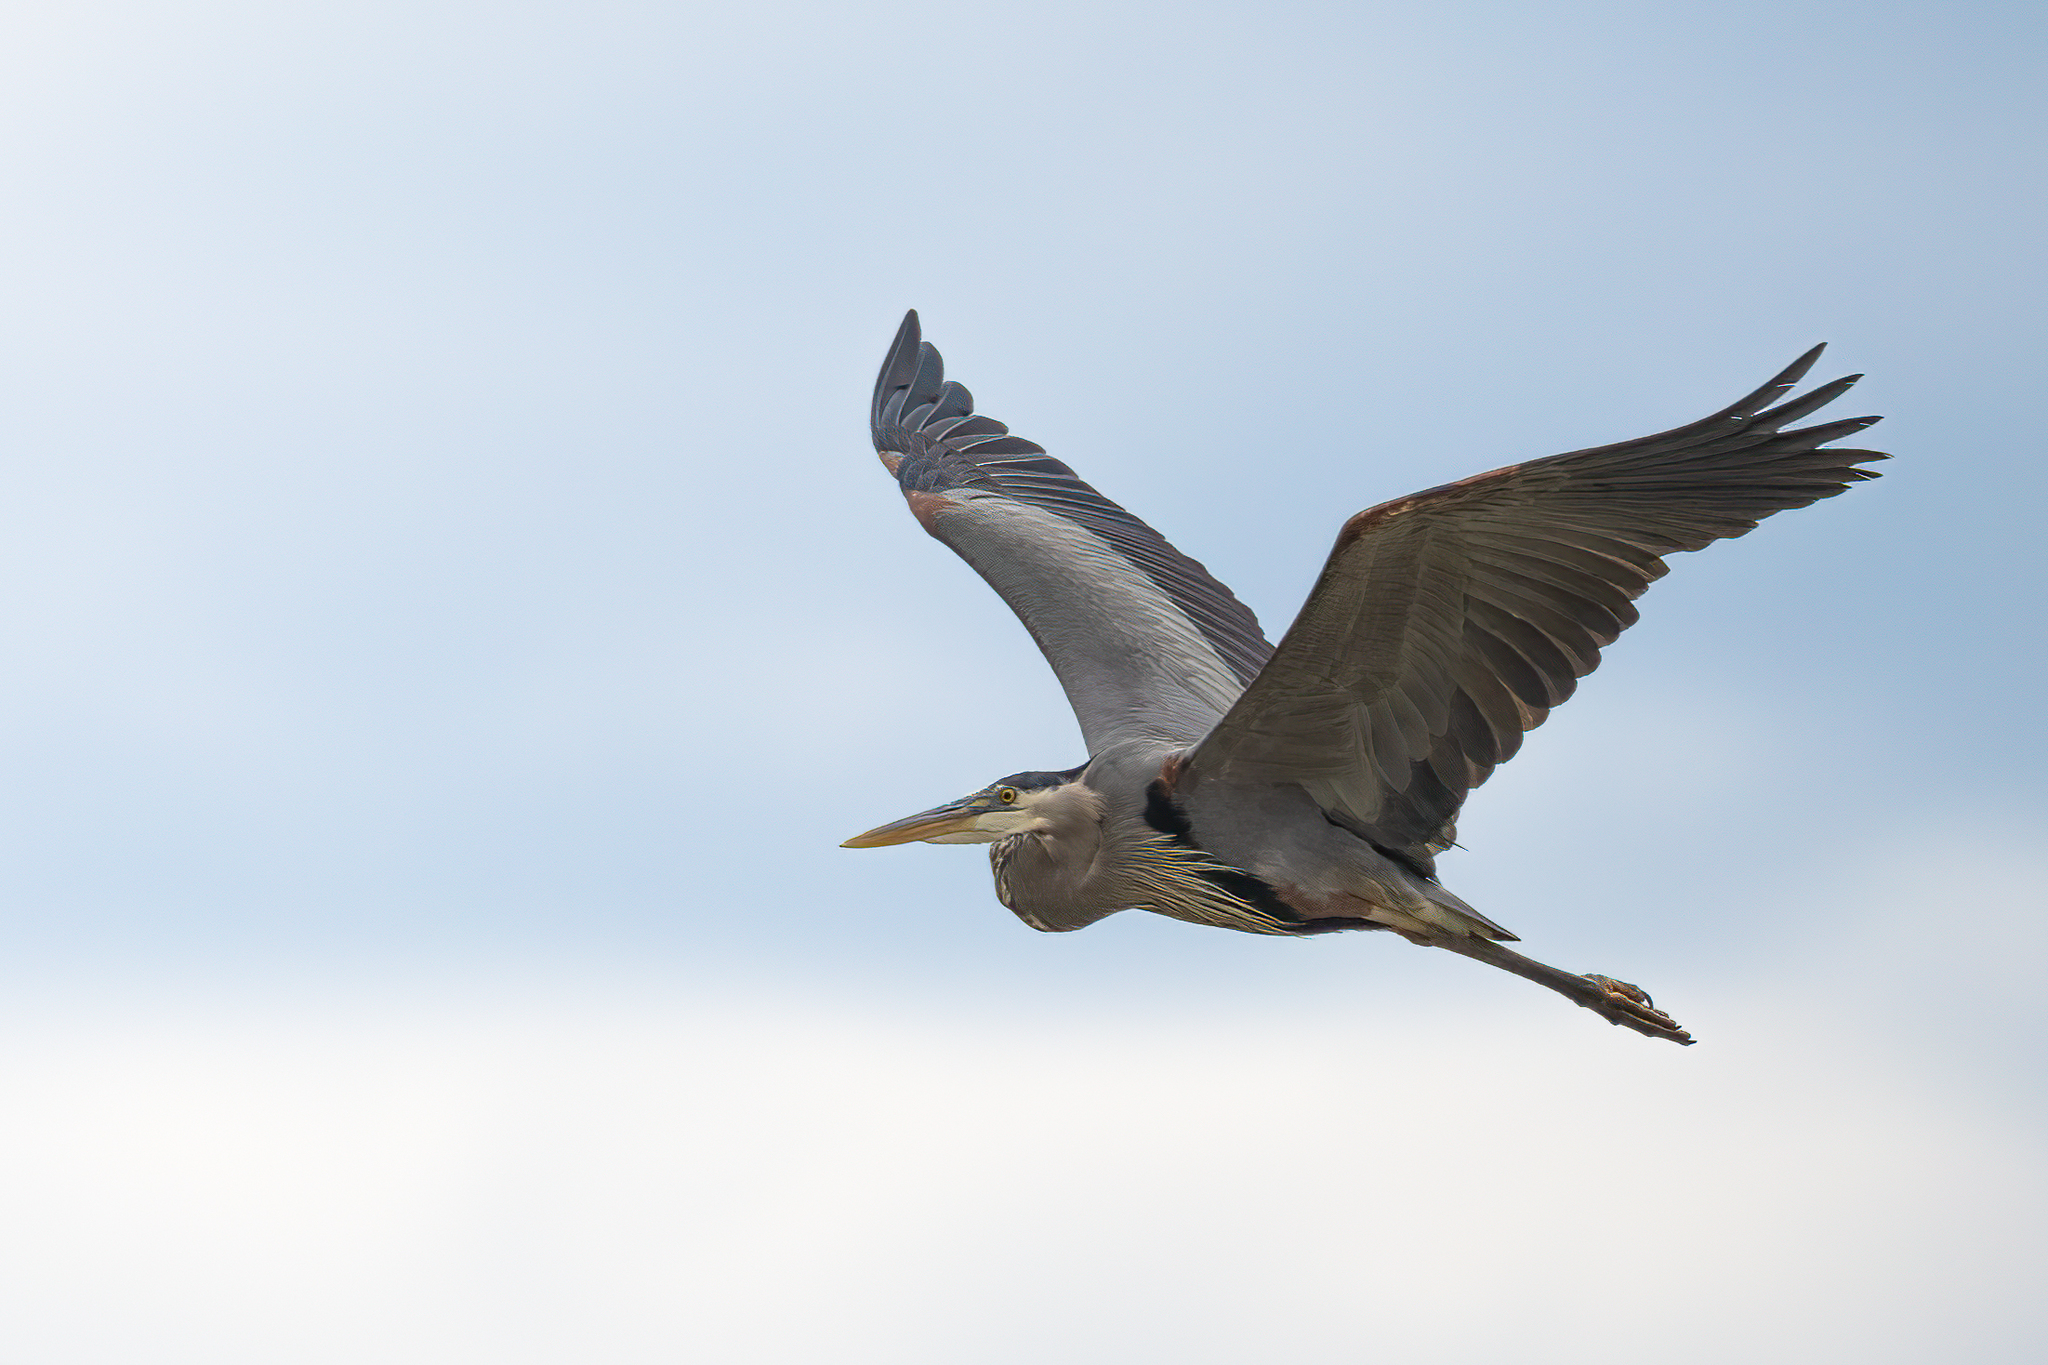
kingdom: Animalia
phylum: Chordata
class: Aves
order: Pelecaniformes
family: Ardeidae
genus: Ardea
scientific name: Ardea herodias
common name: Great blue heron
